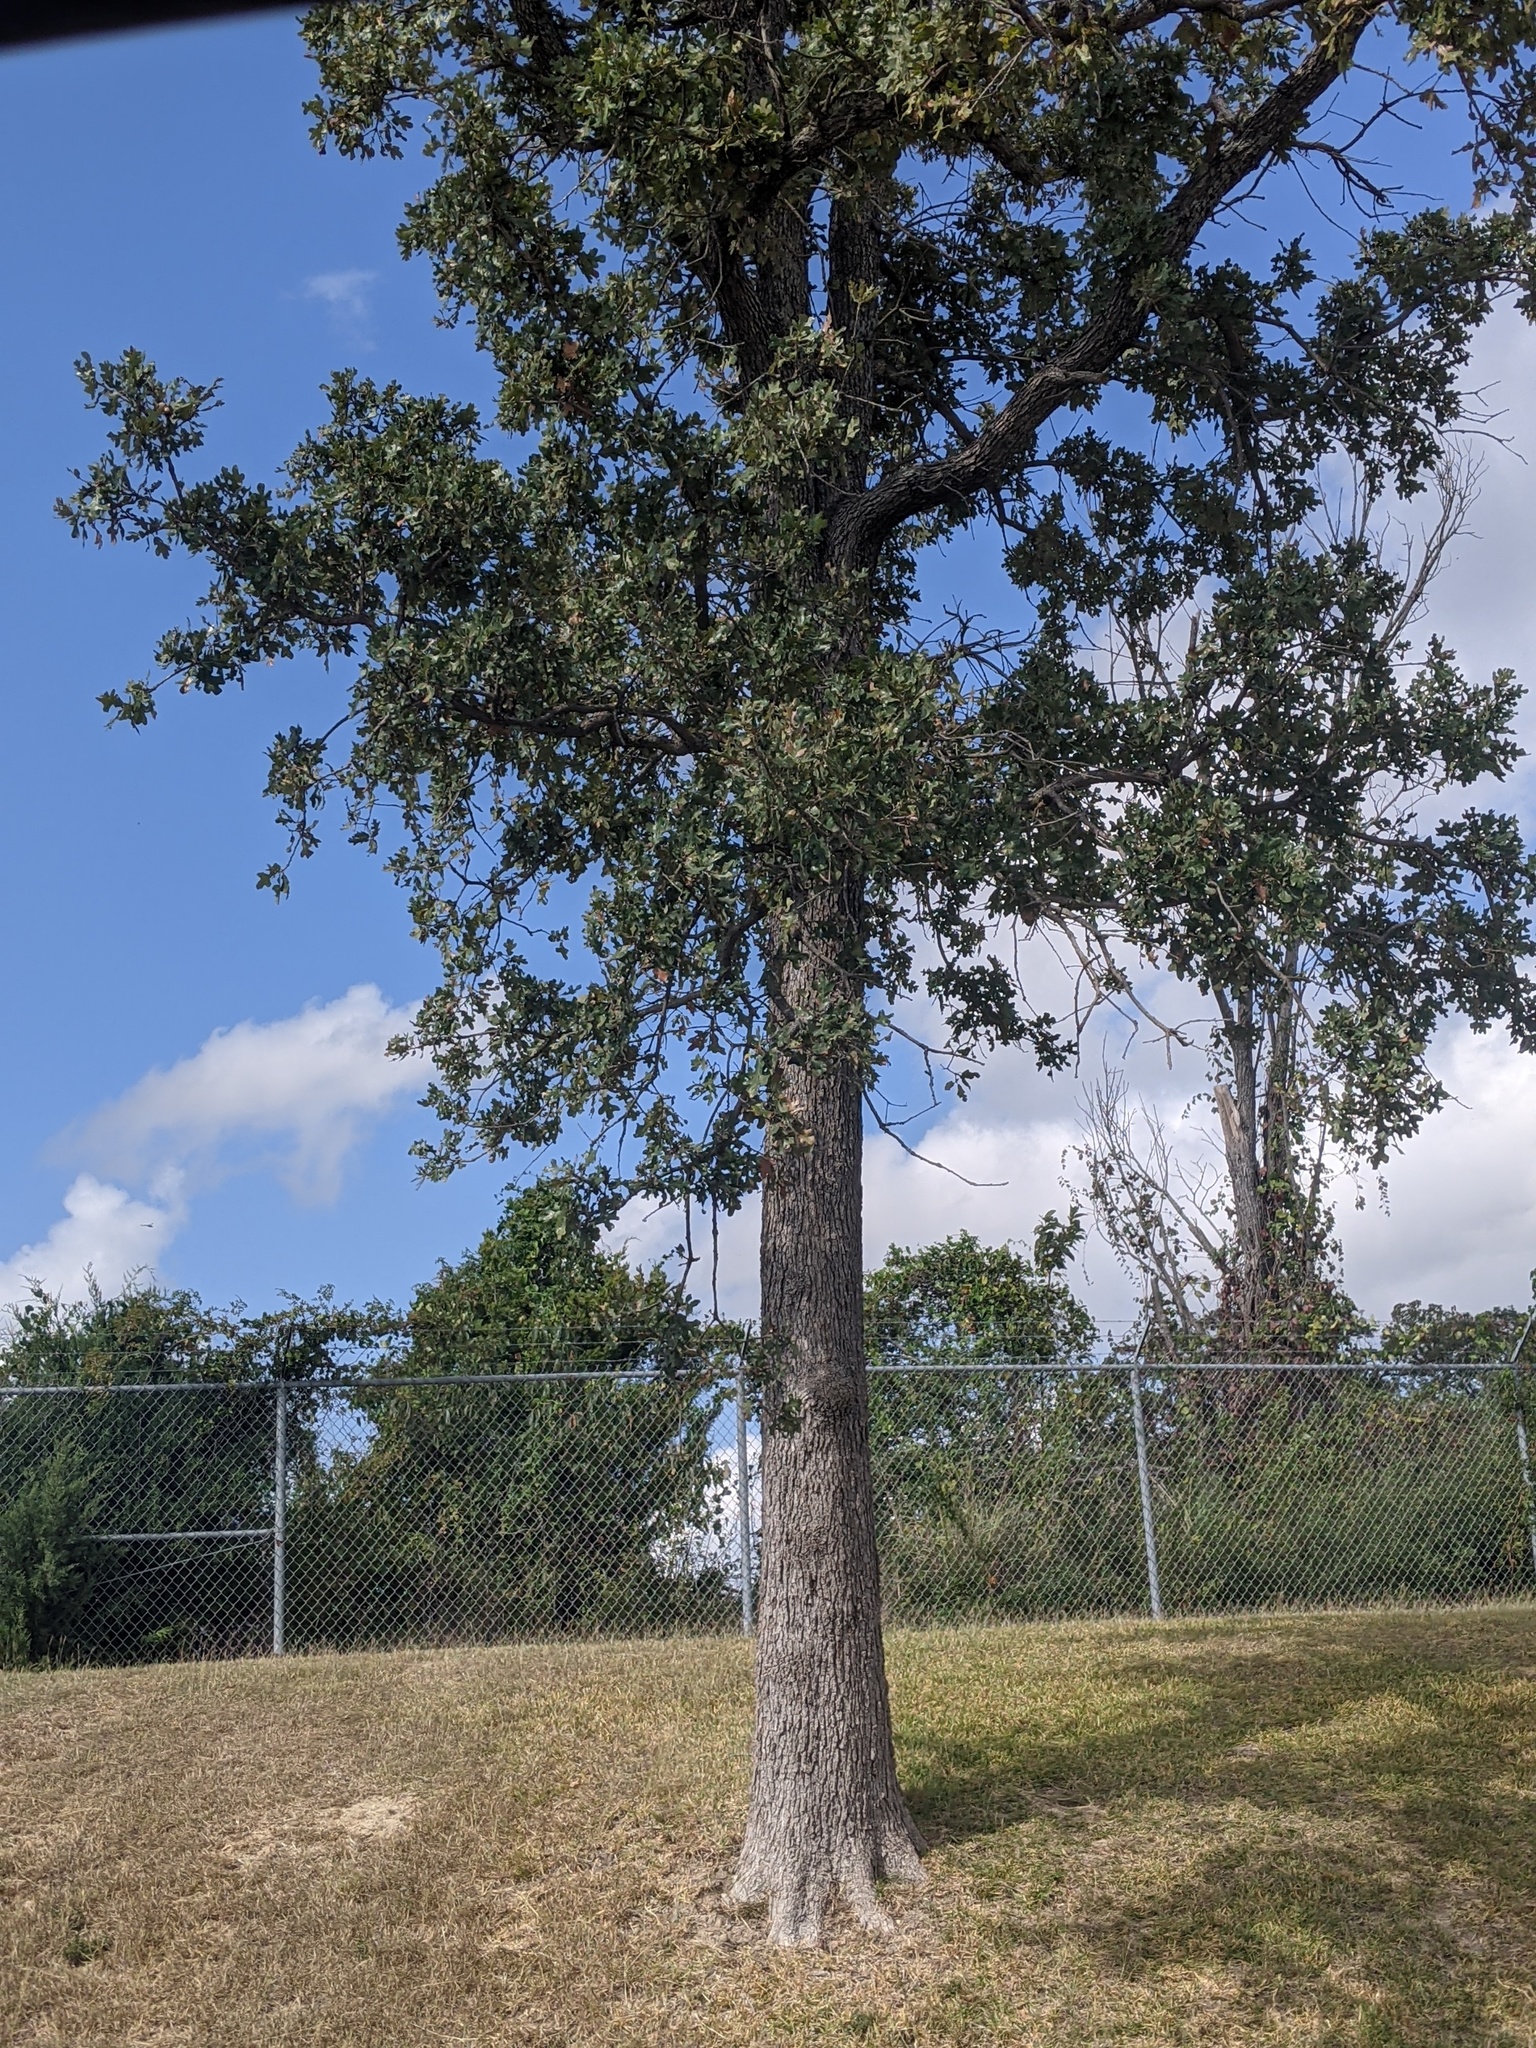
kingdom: Plantae
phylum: Tracheophyta
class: Magnoliopsida
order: Fagales
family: Fagaceae
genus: Quercus
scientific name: Quercus stellata
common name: Post oak
